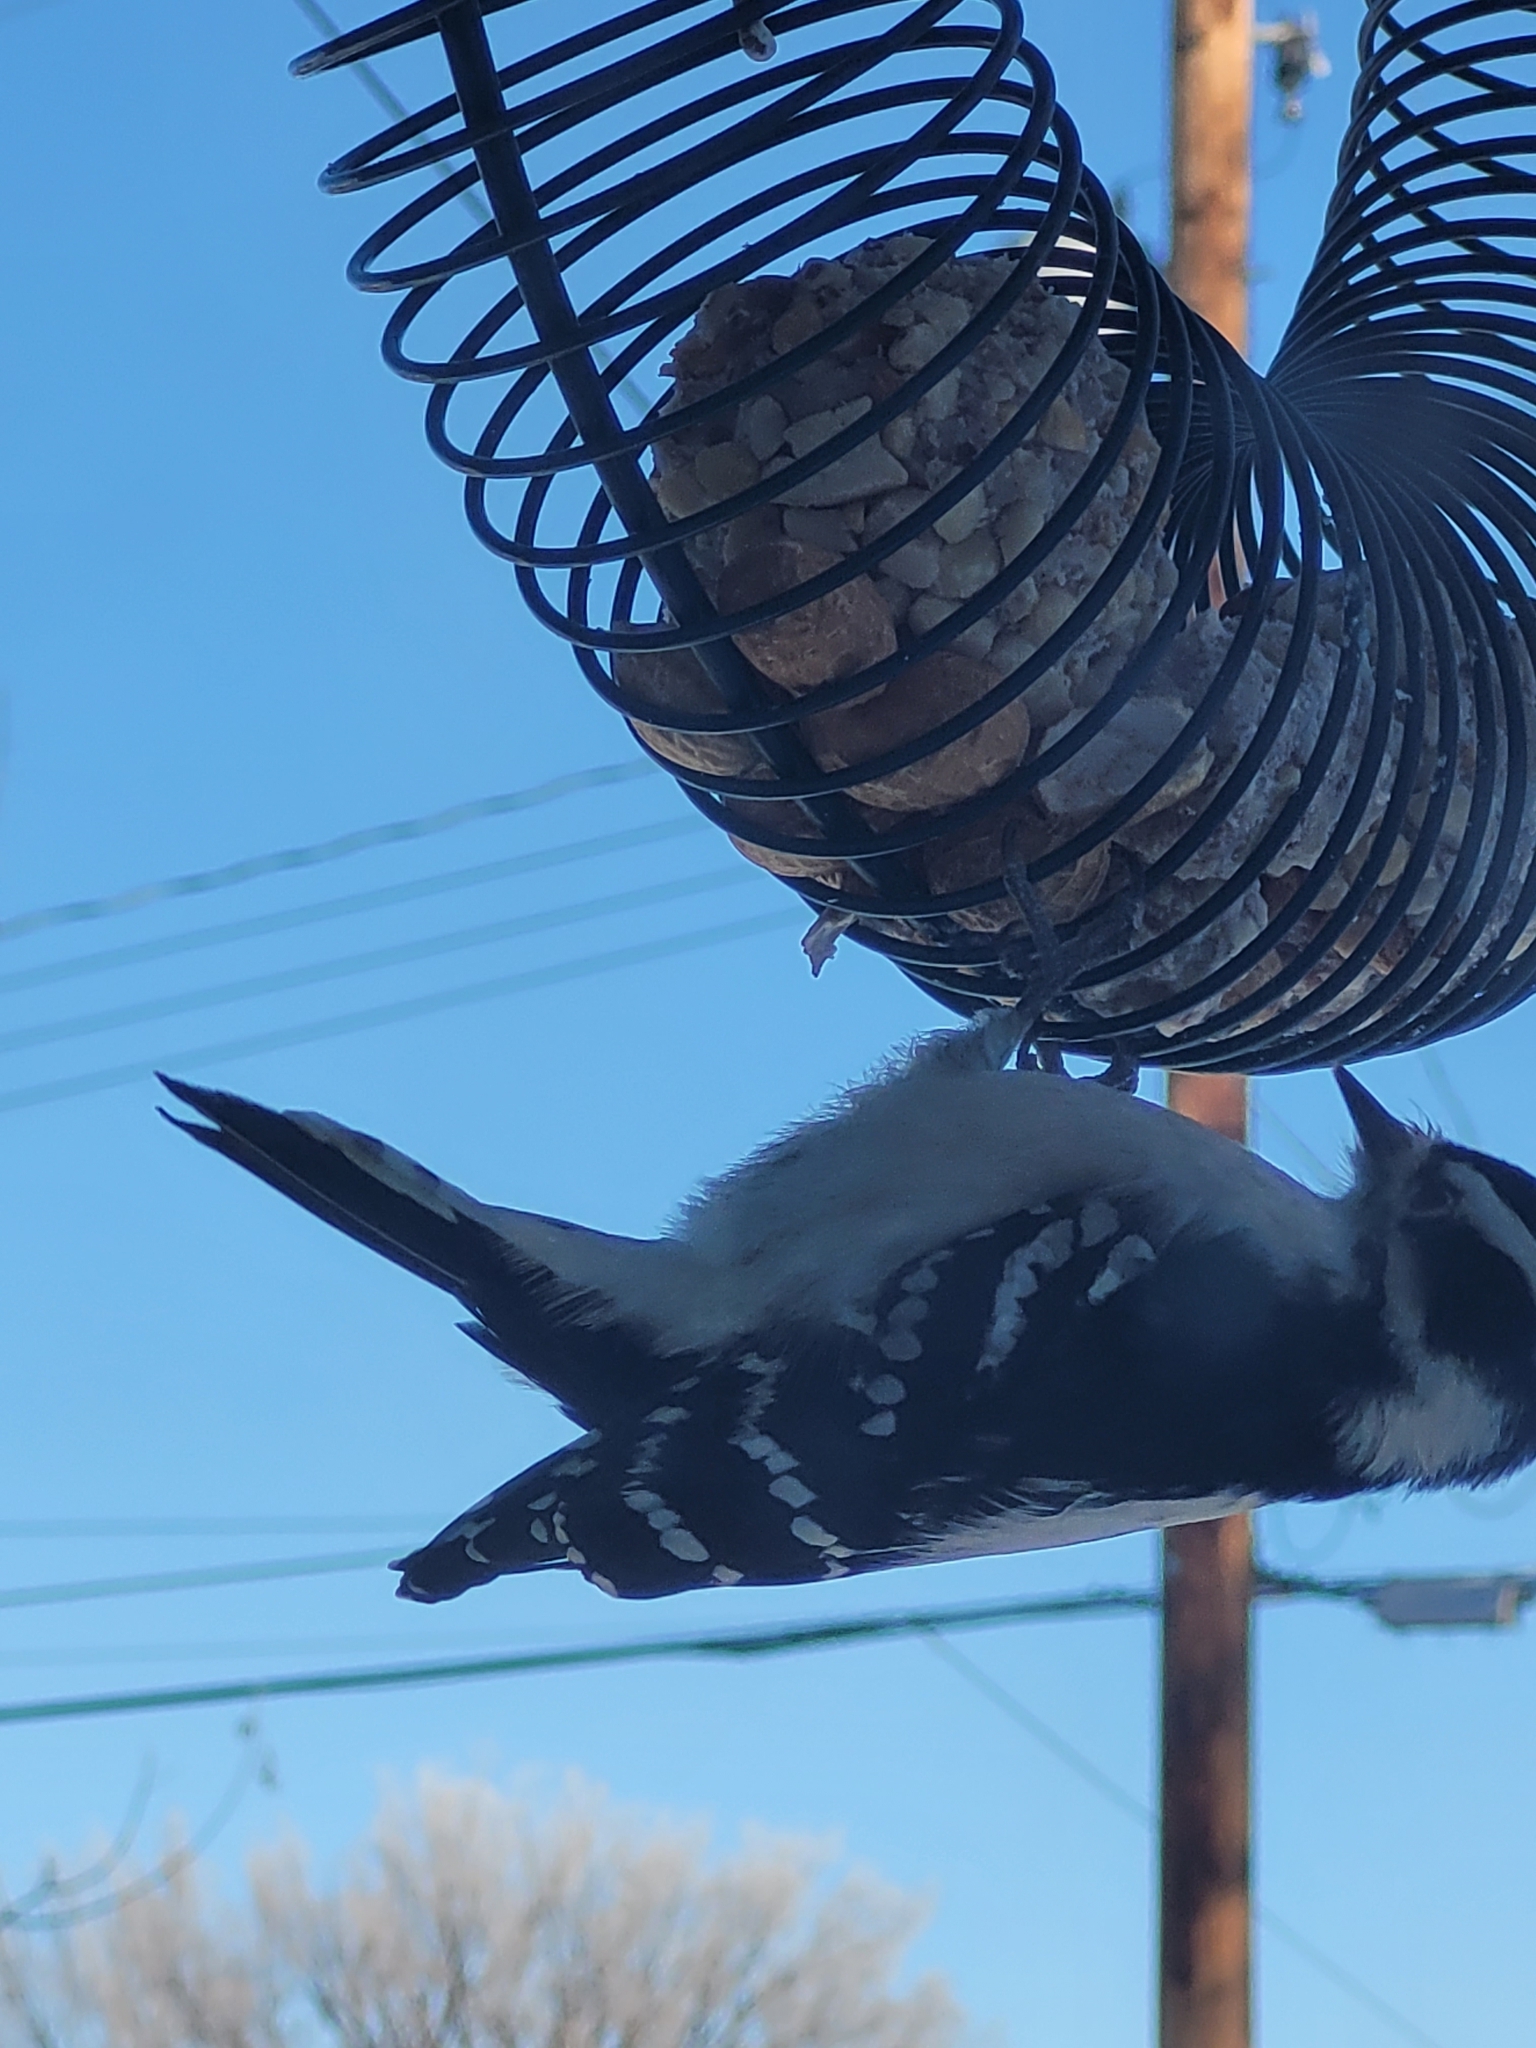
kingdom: Animalia
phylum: Chordata
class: Aves
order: Piciformes
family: Picidae
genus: Dryobates
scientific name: Dryobates pubescens
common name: Downy woodpecker
